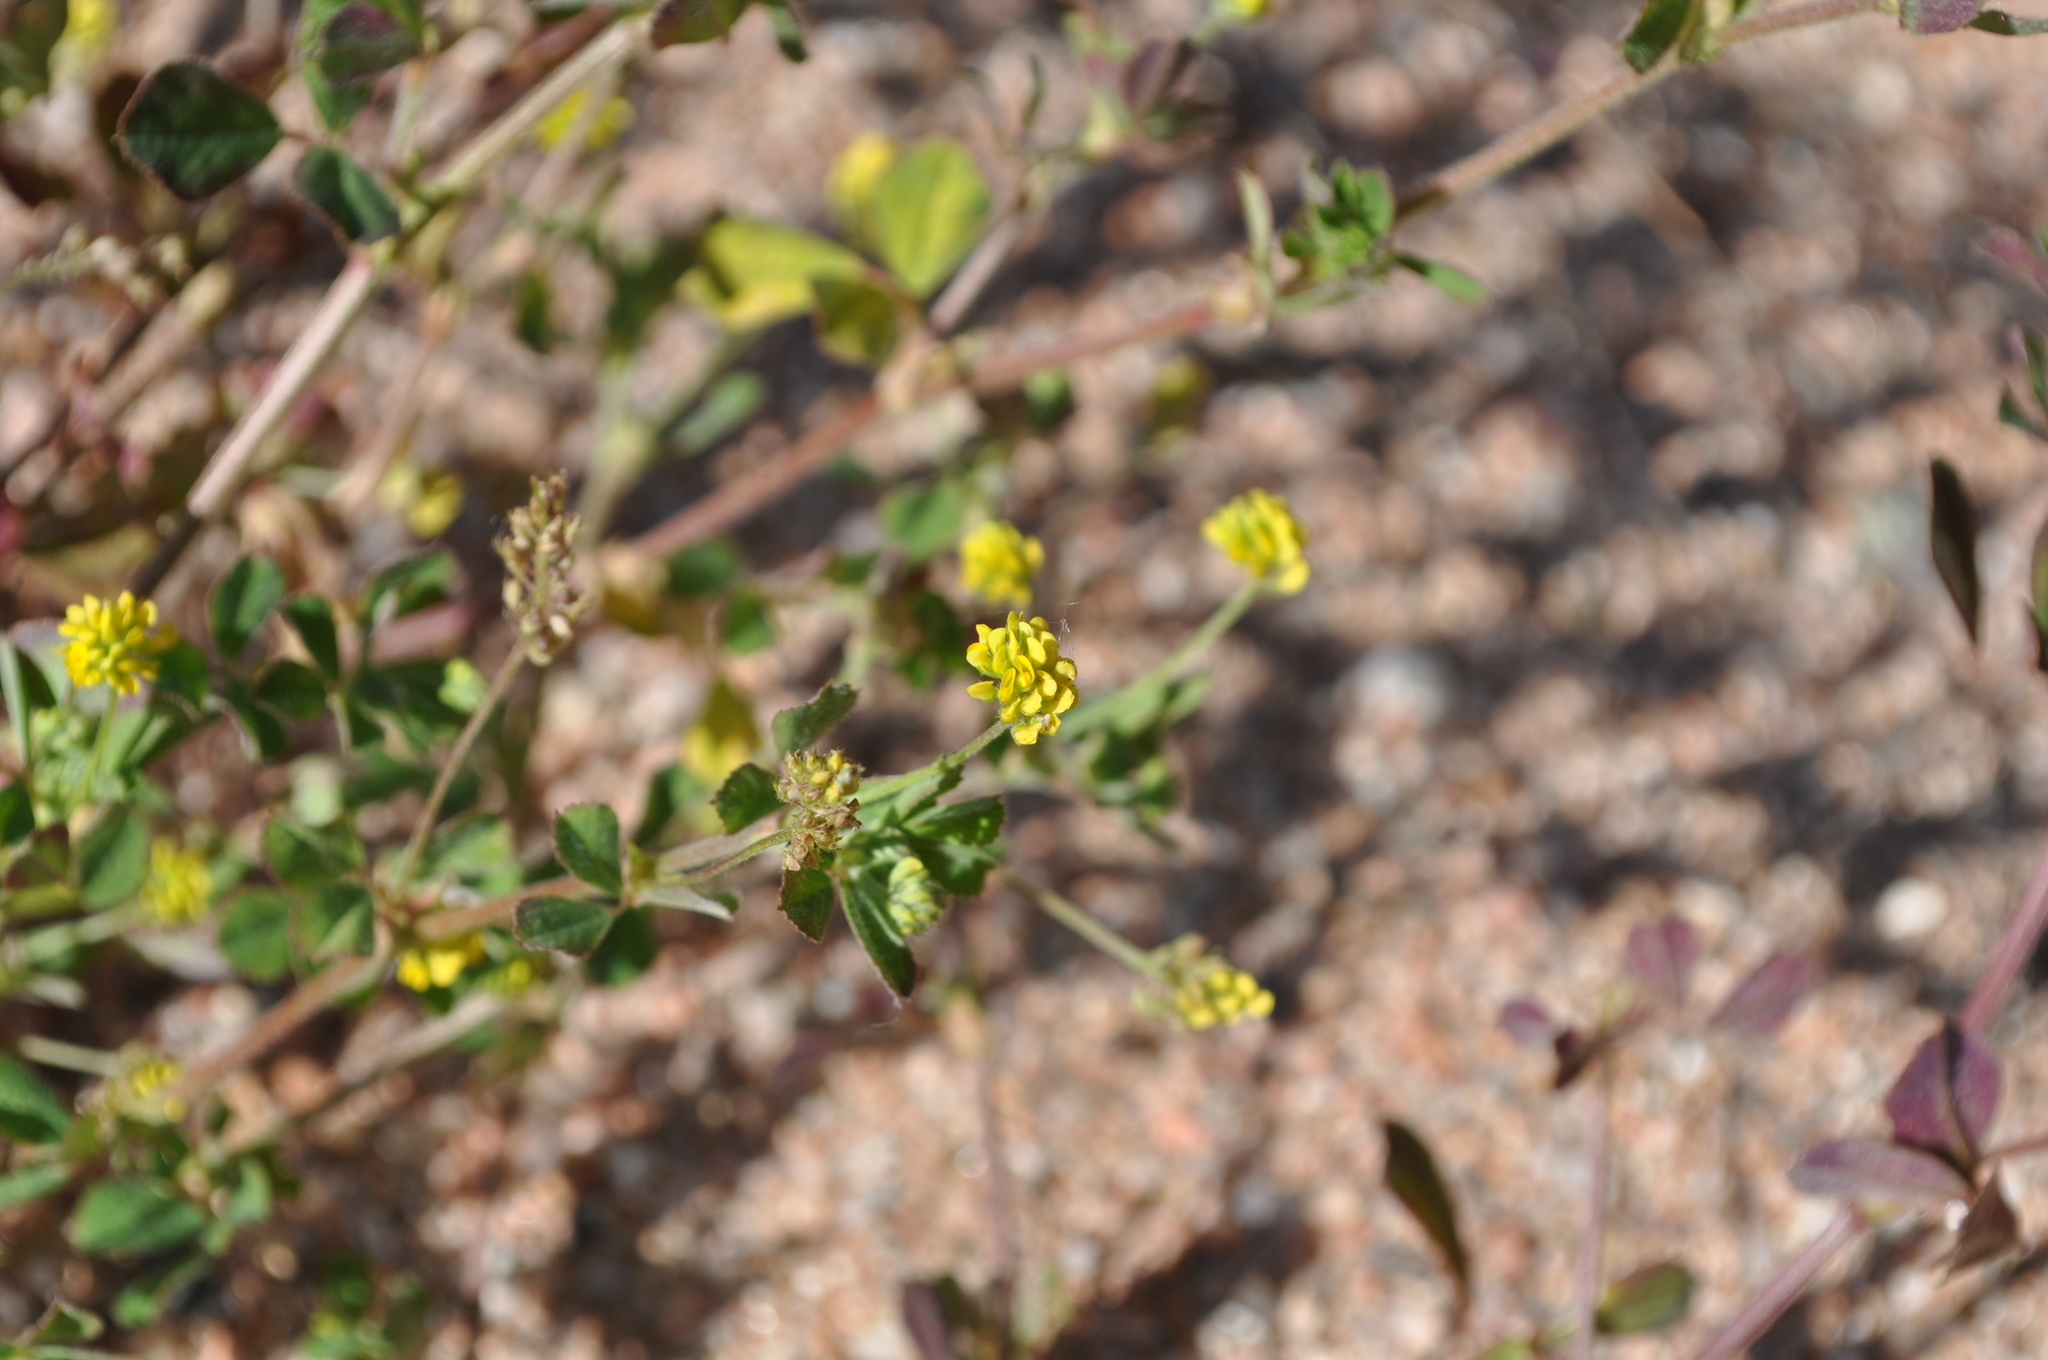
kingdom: Plantae
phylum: Tracheophyta
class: Magnoliopsida
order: Fabales
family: Fabaceae
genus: Medicago
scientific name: Medicago lupulina
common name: Black medick
